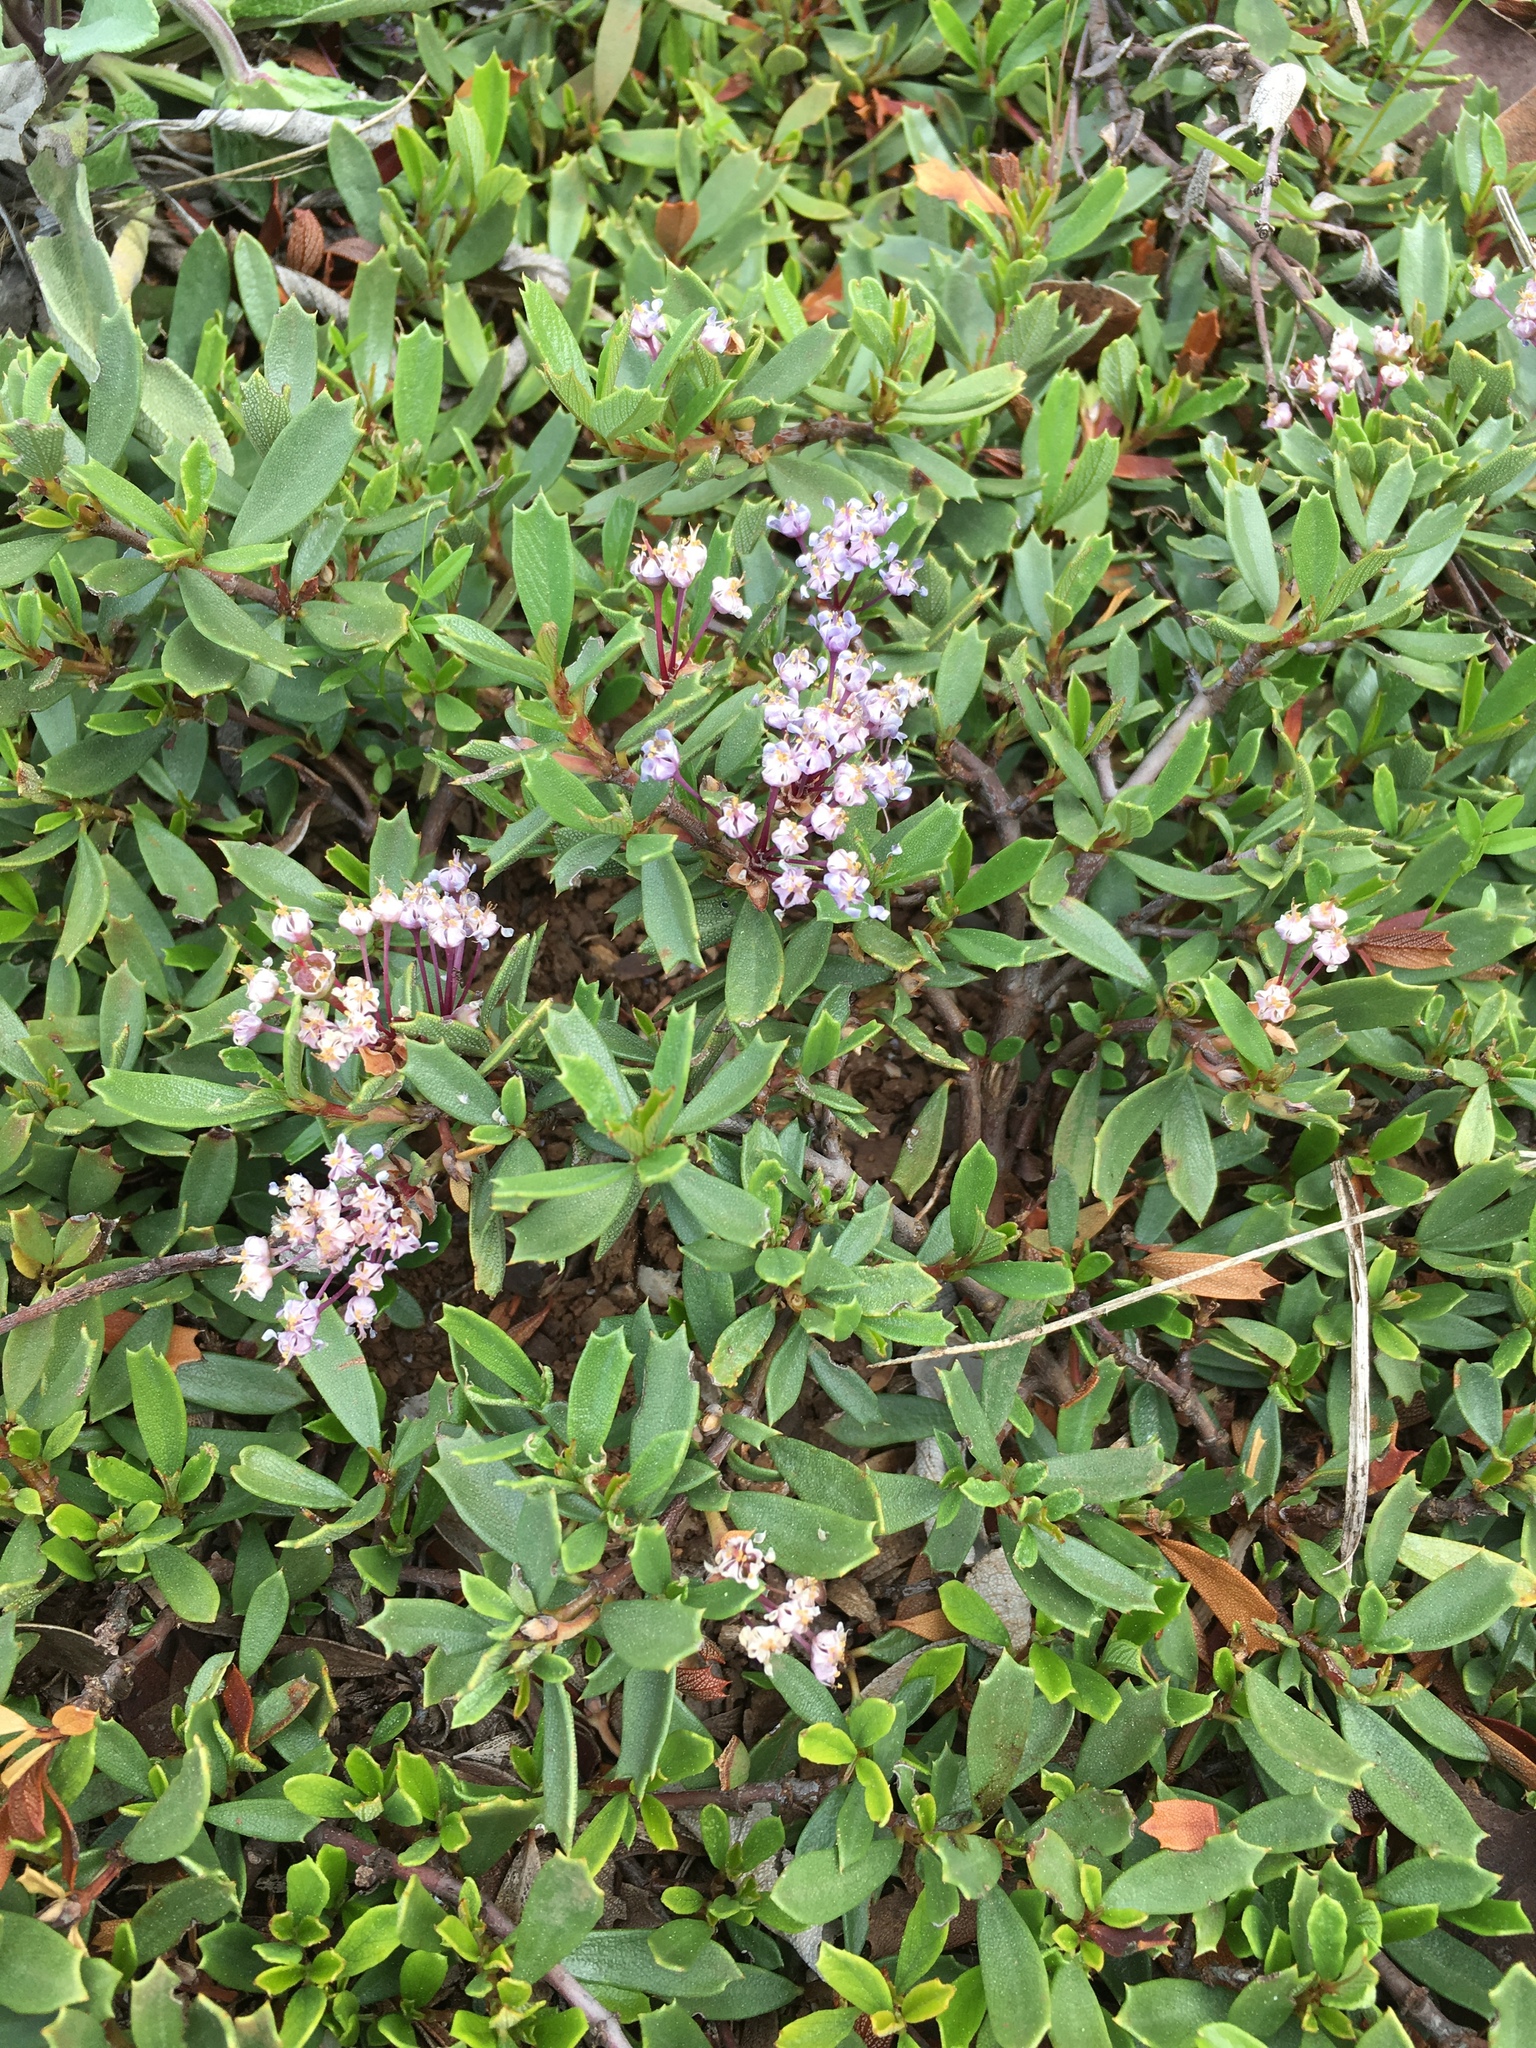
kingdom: Plantae
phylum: Tracheophyta
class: Magnoliopsida
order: Rosales
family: Rhamnaceae
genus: Ceanothus
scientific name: Ceanothus prostratus
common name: Mahala-mat
